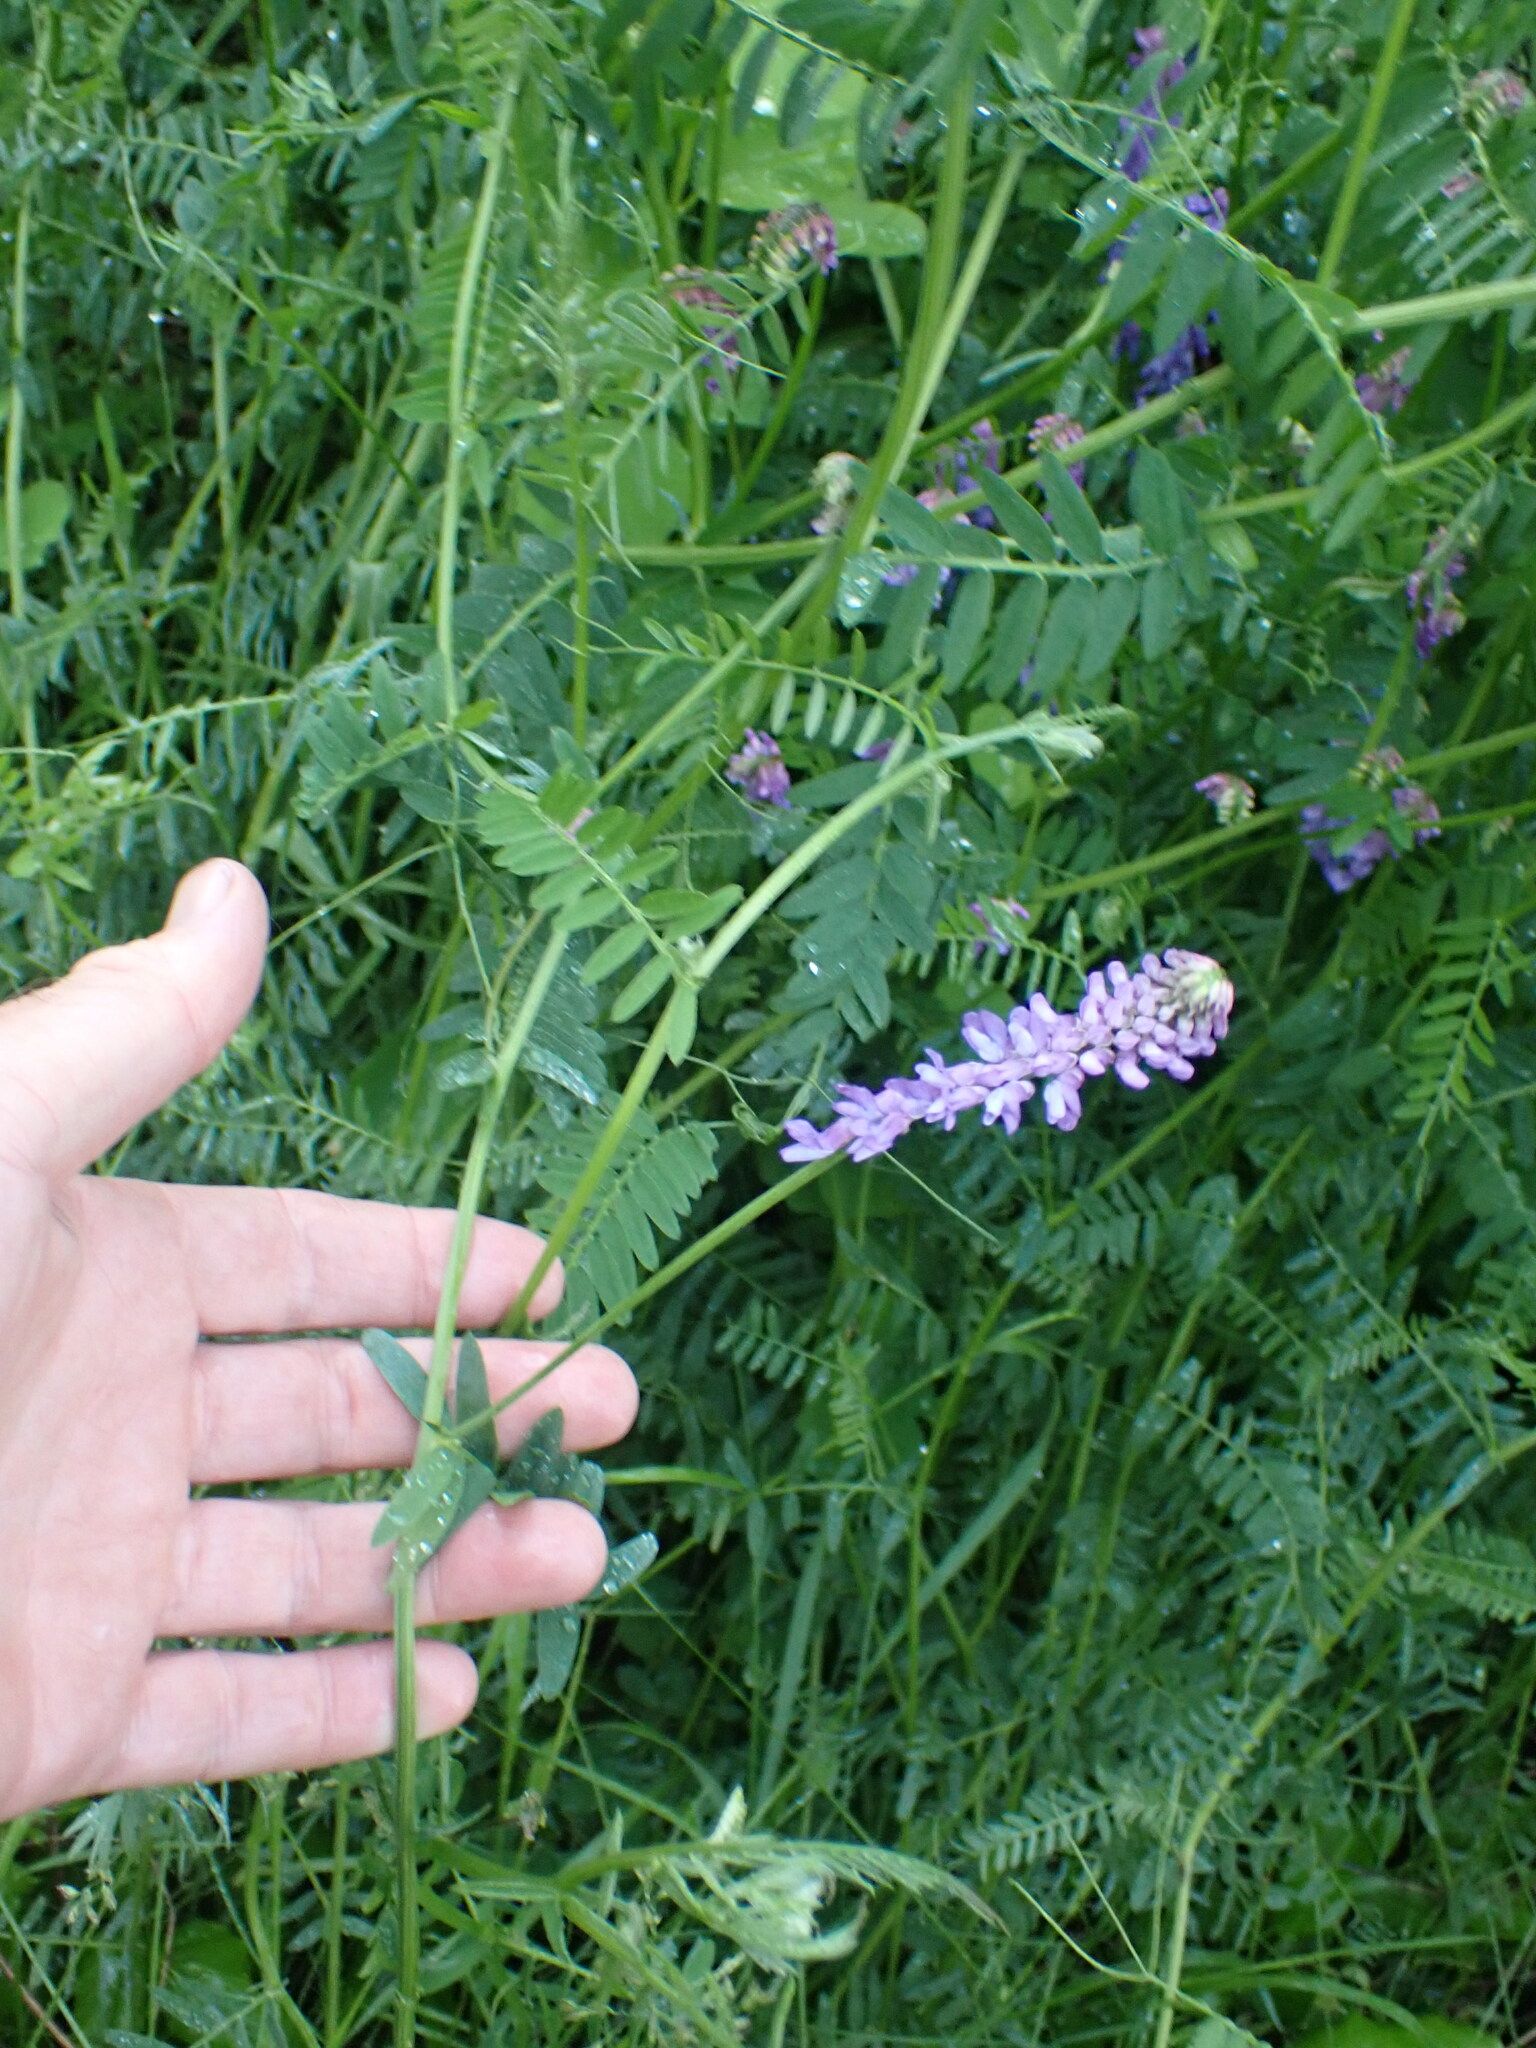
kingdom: Plantae
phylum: Tracheophyta
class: Magnoliopsida
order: Fabales
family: Fabaceae
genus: Vicia
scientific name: Vicia cracca
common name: Bird vetch
